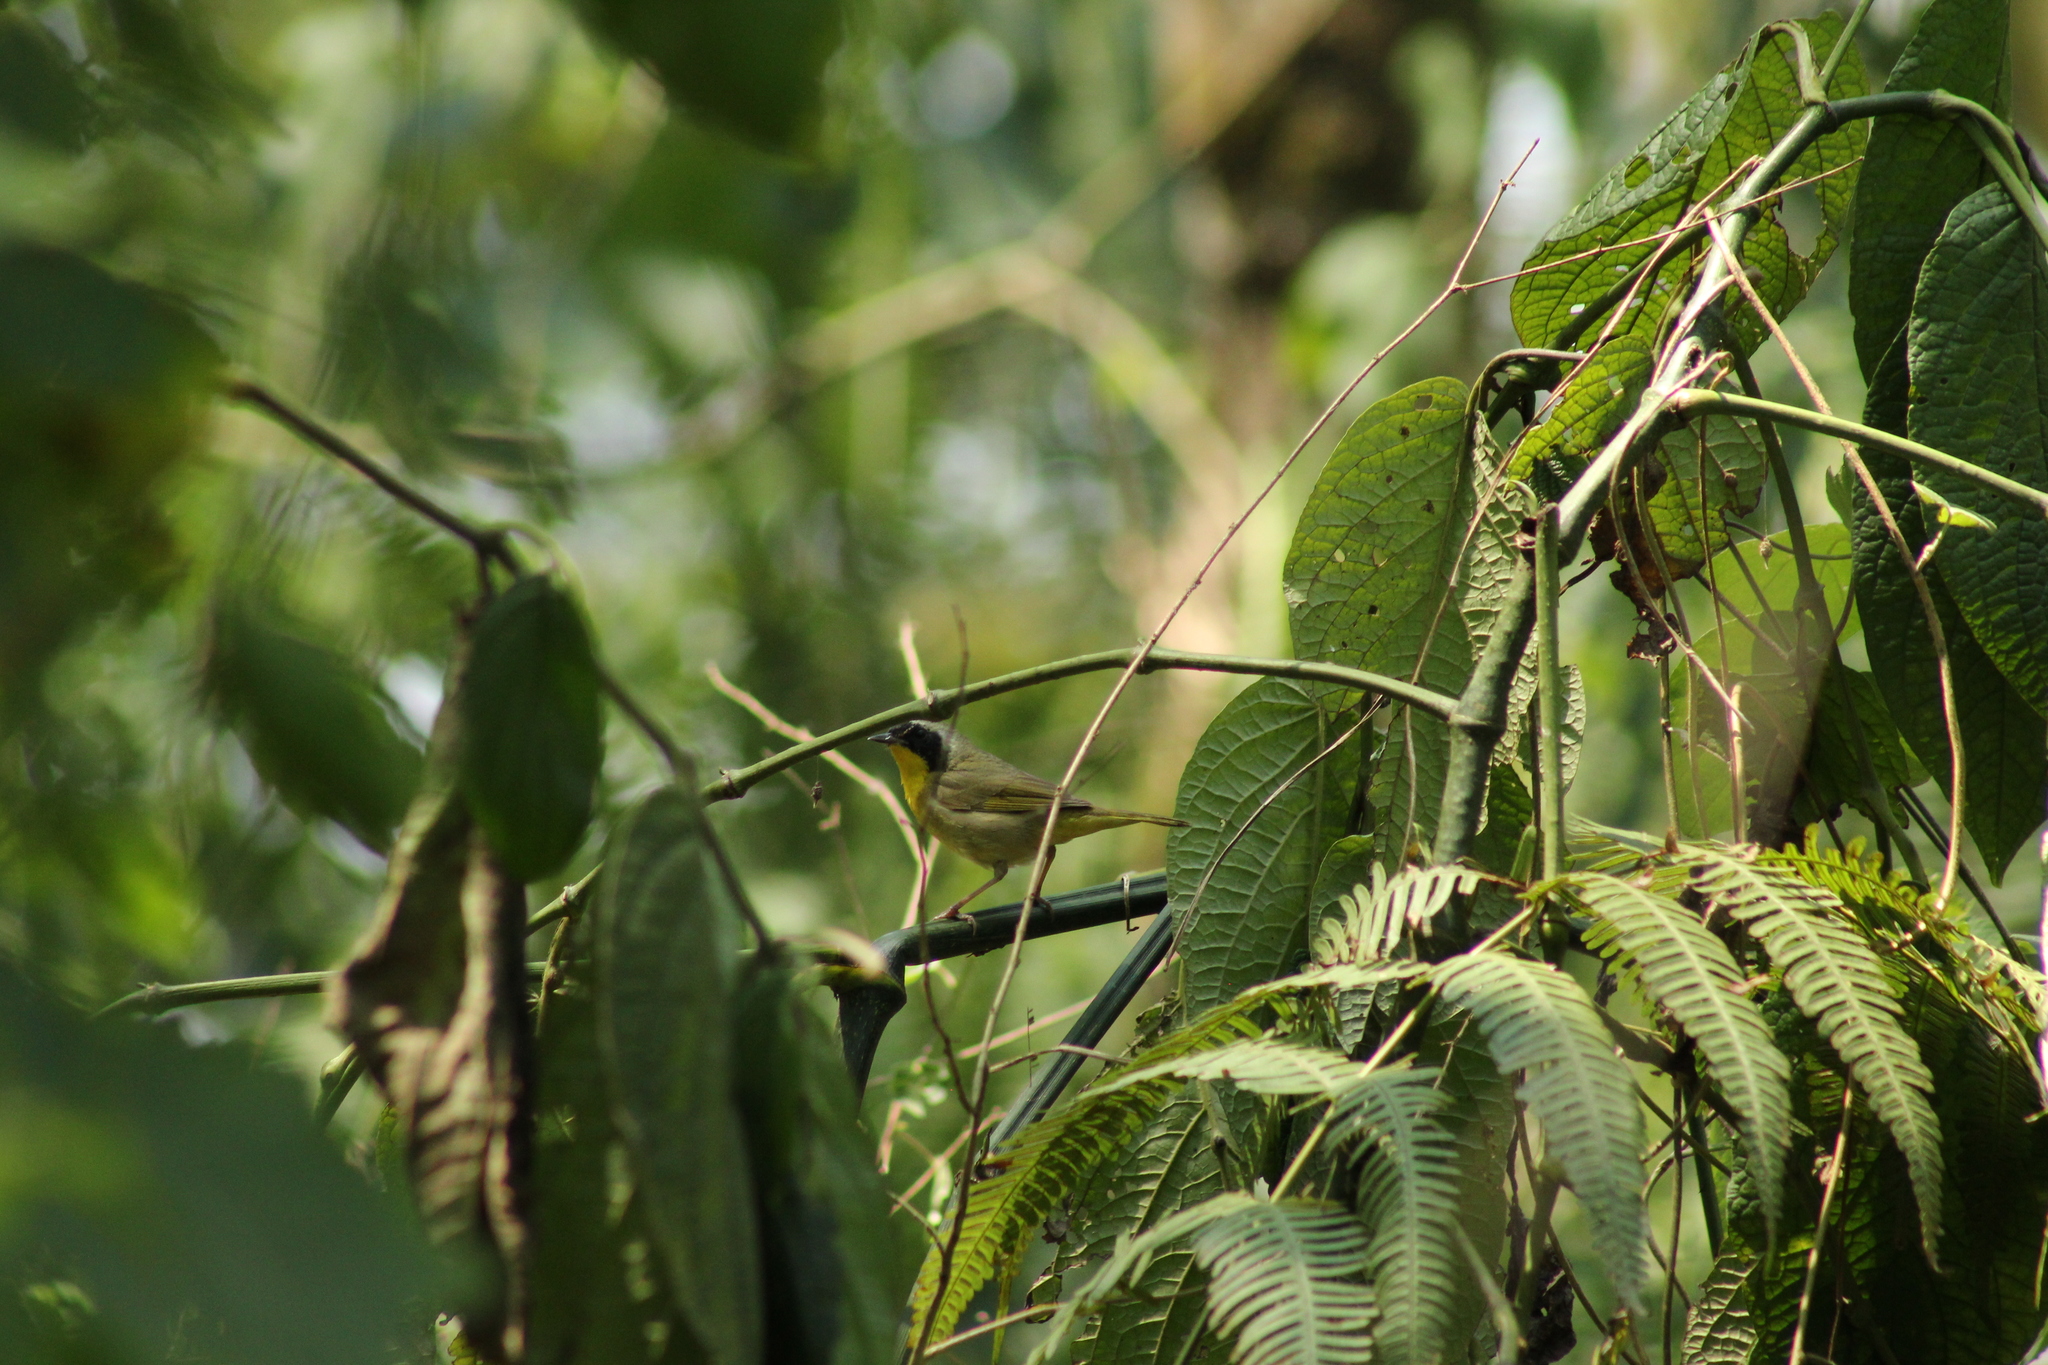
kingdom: Animalia
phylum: Chordata
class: Aves
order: Passeriformes
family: Parulidae
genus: Geothlypis
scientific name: Geothlypis trichas
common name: Common yellowthroat
